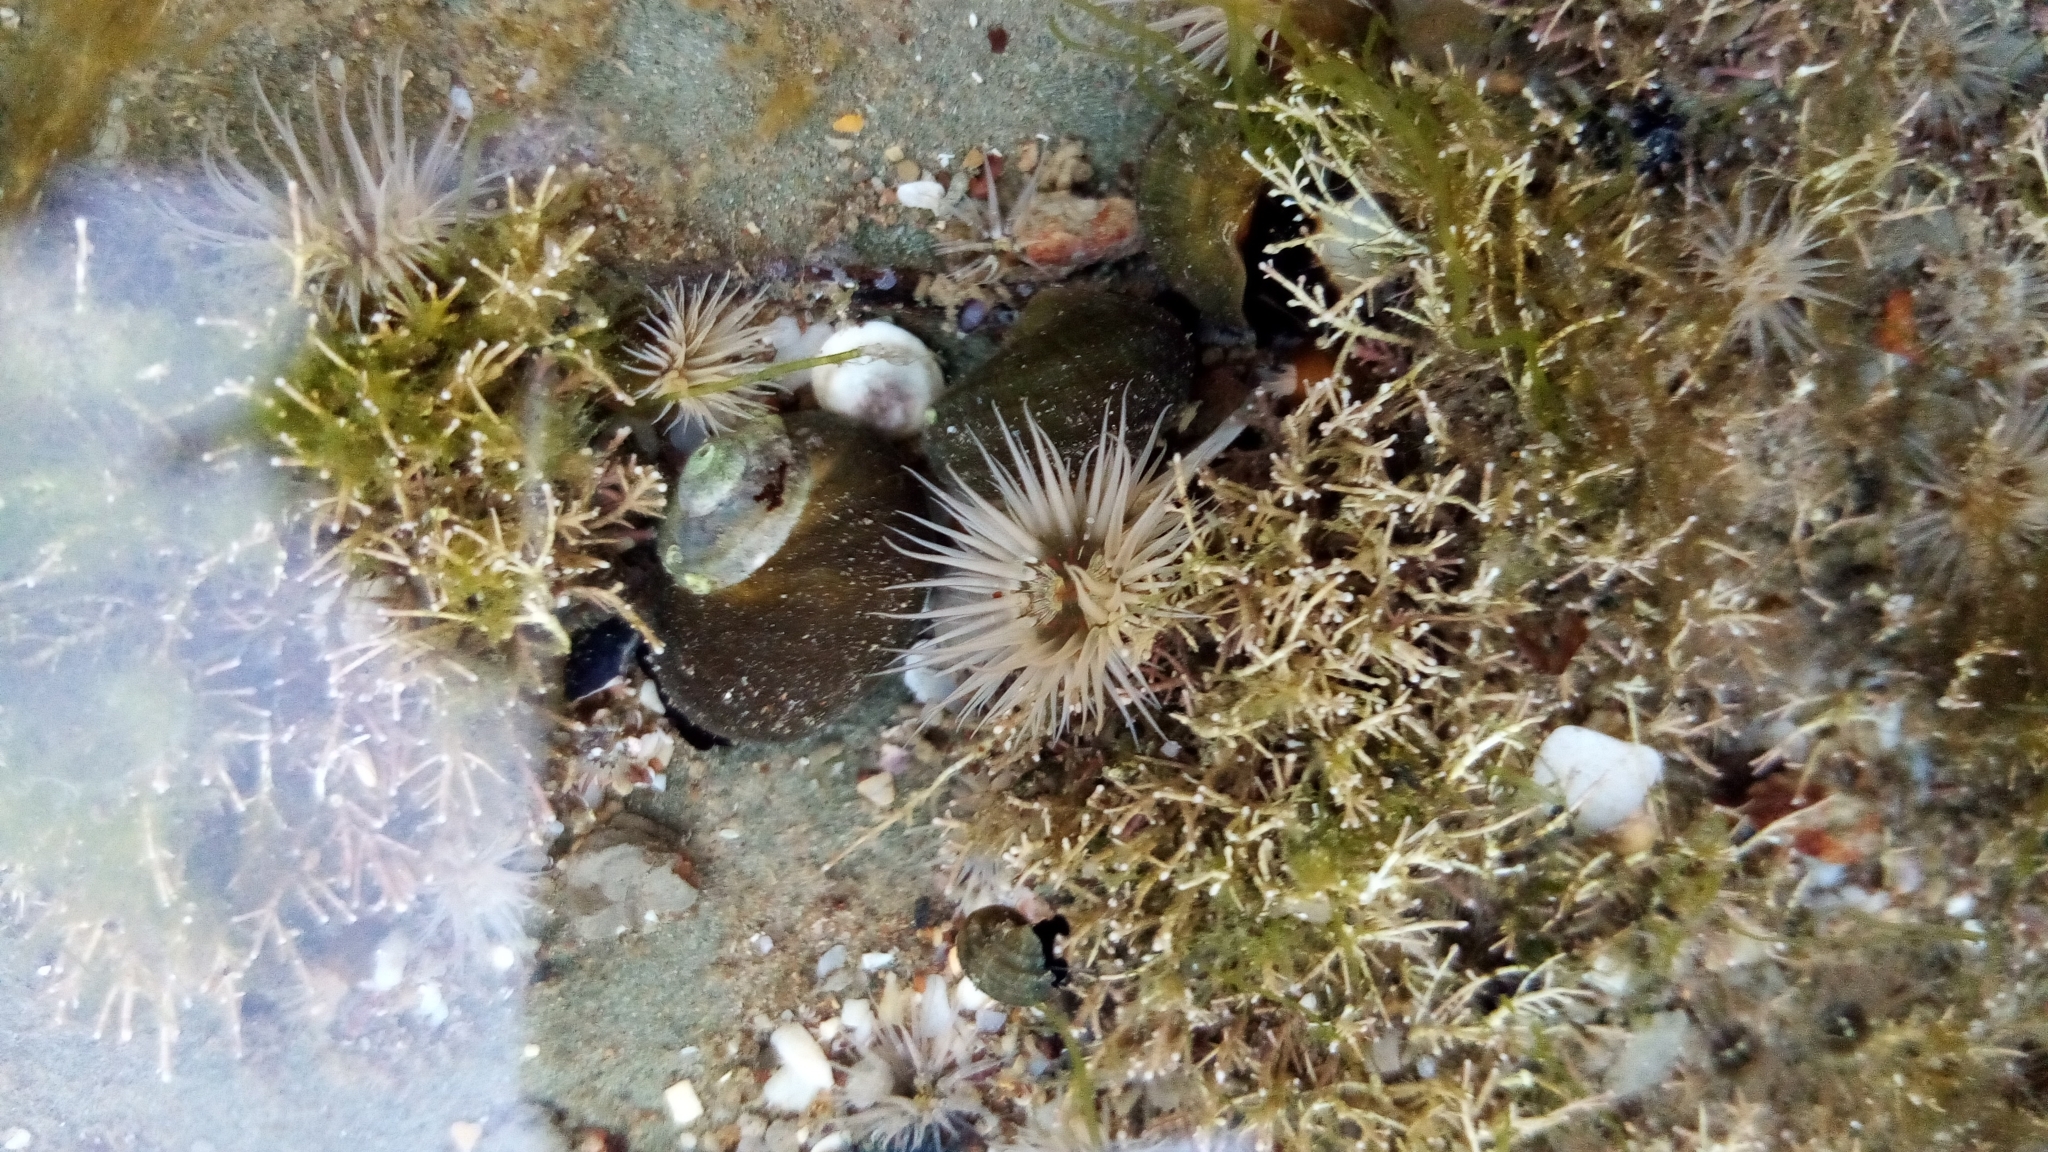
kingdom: Animalia
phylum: Cnidaria
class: Anthozoa
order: Actiniaria
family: Diadumenidae
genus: Diadumene
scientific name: Diadumene lineata
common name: Orange-striped anemone
